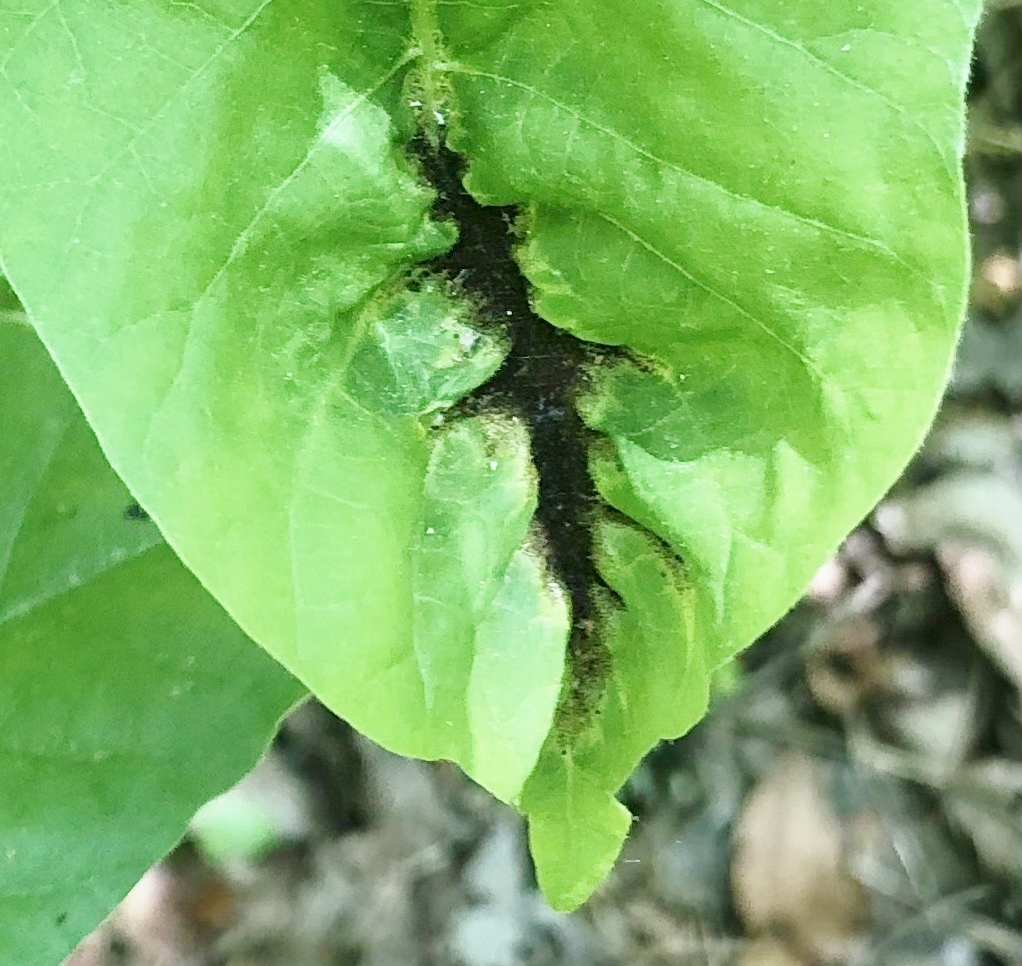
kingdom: Fungi
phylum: Basidiomycota
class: Pucciniomycetes
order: Pucciniales
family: Pileolariaceae
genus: Pileolaria
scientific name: Pileolaria brevipes
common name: Poison ivy rust
